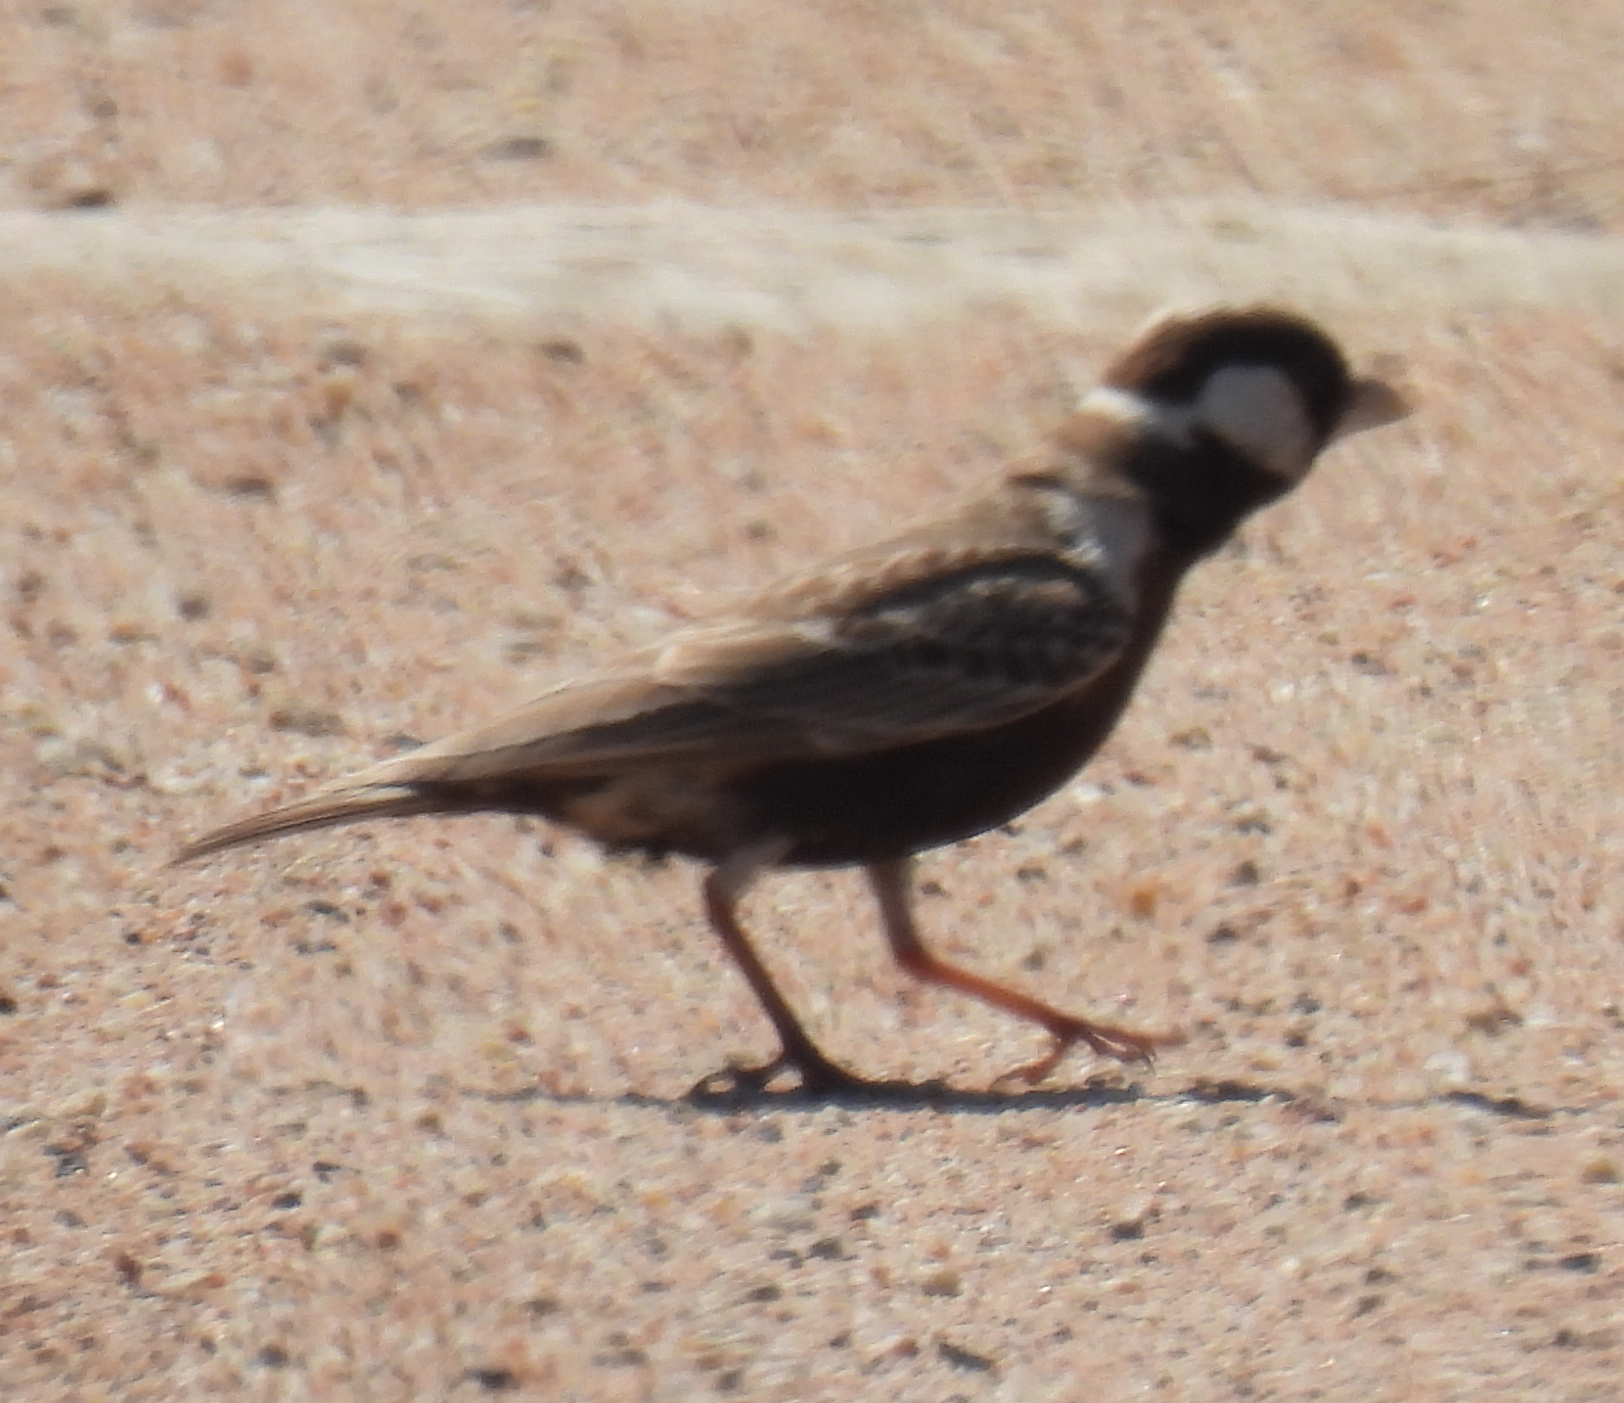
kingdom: Animalia
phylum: Chordata
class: Aves
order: Passeriformes
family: Alaudidae
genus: Eremopterix
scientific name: Eremopterix verticalis
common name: Grey-backed sparrow-lark
